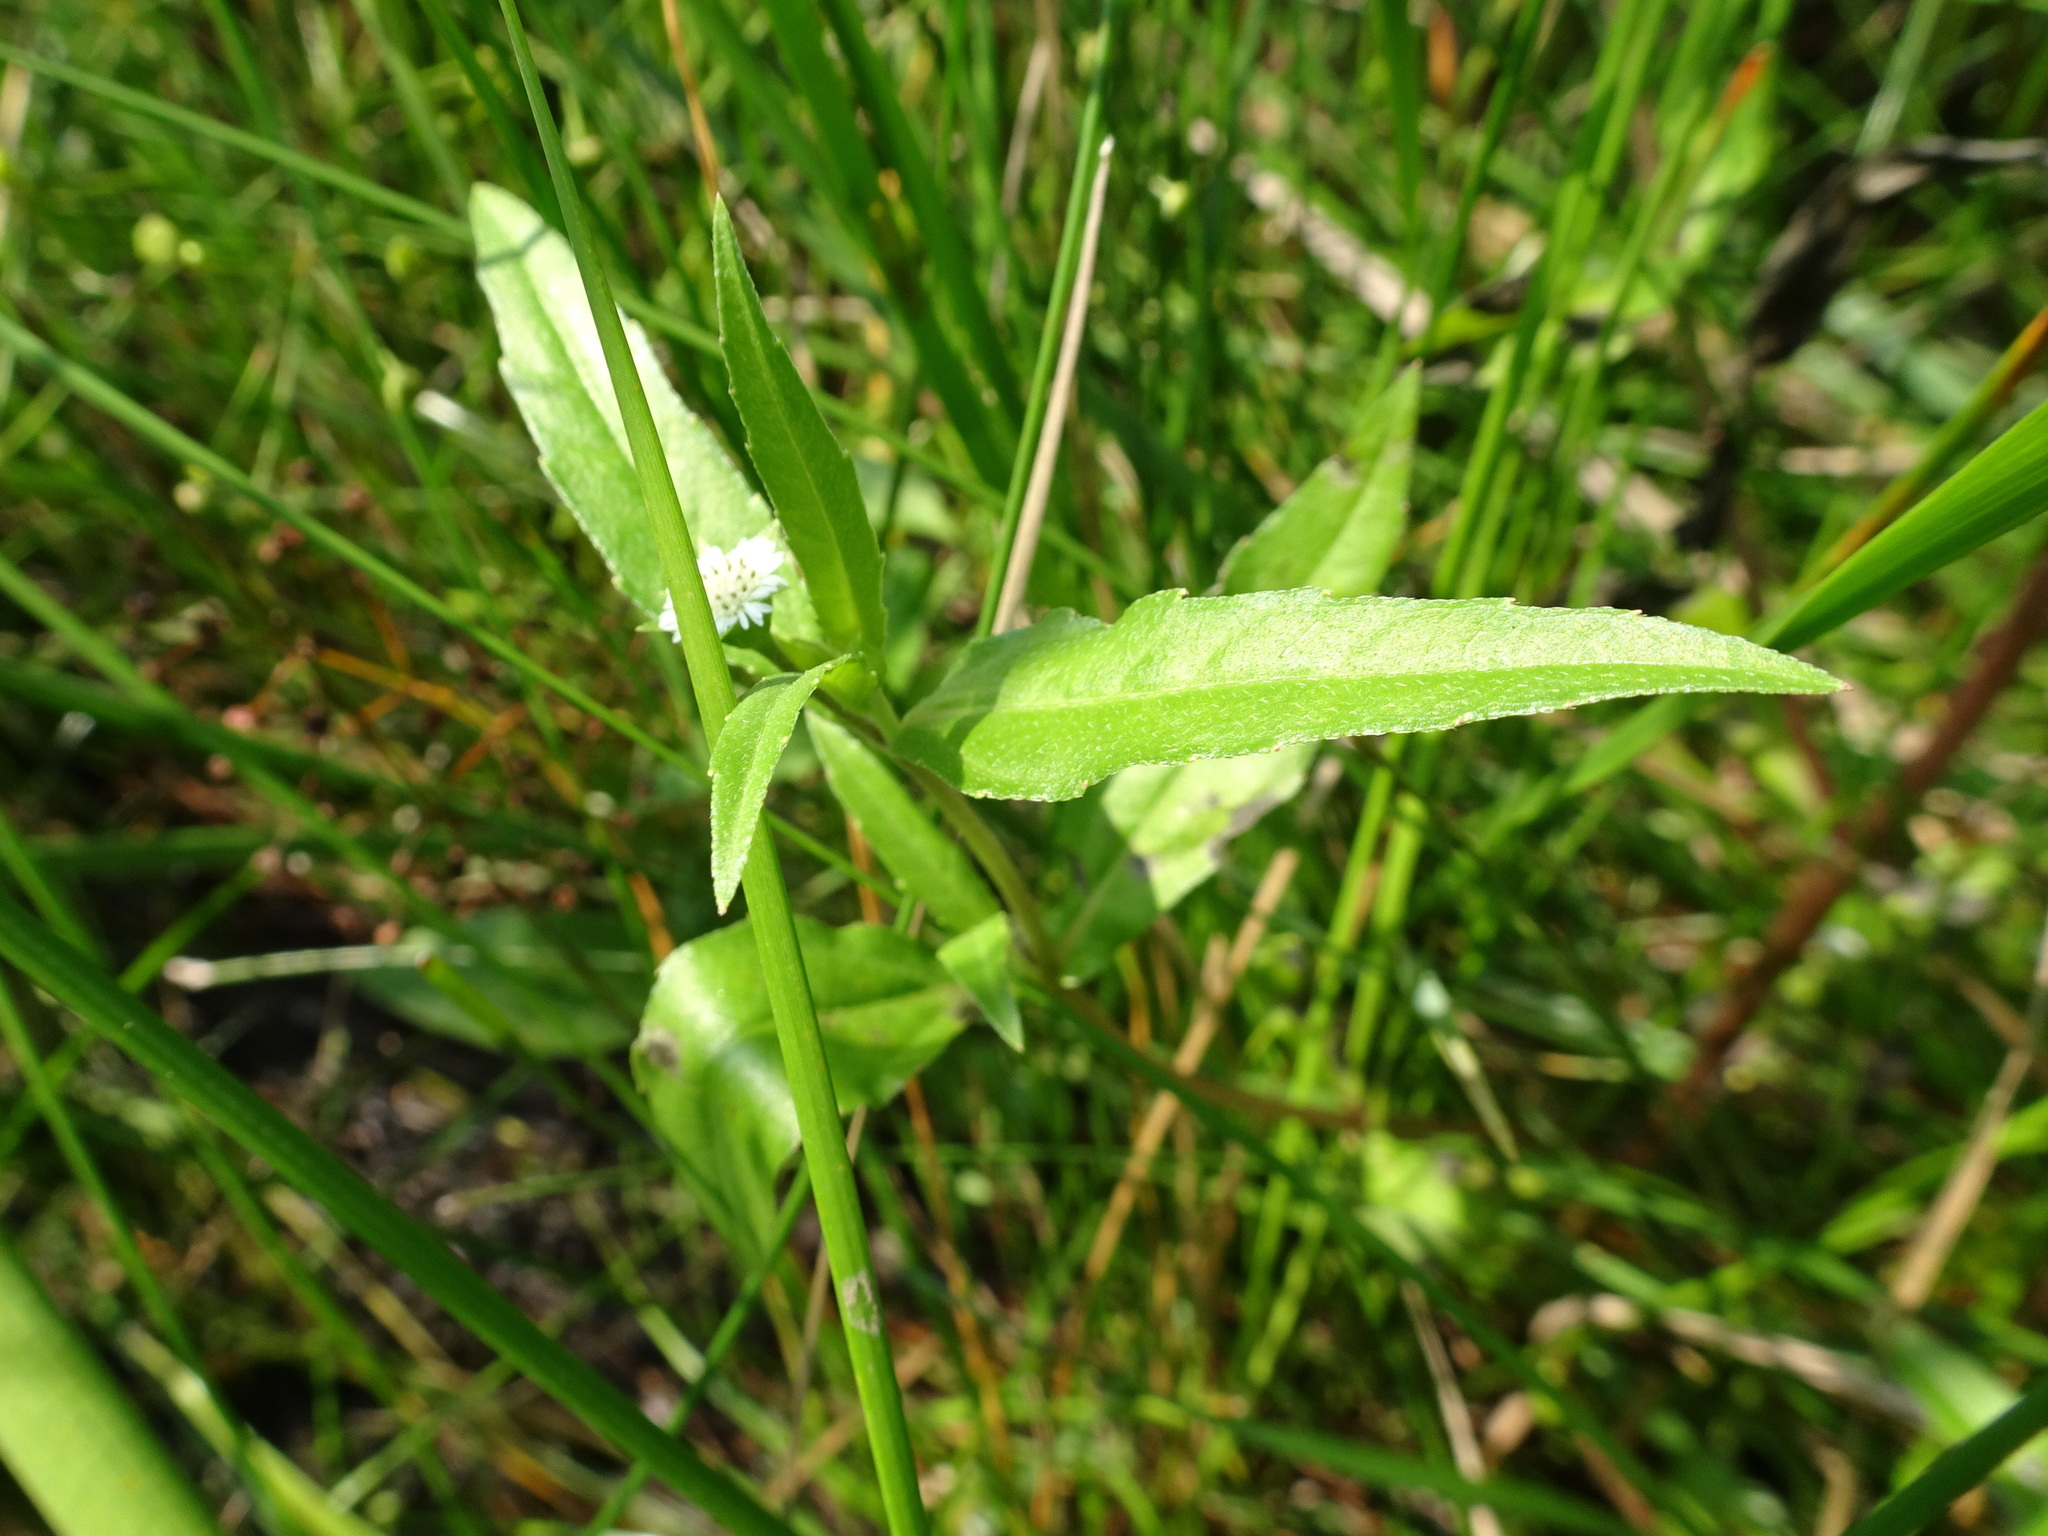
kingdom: Plantae
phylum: Tracheophyta
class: Magnoliopsida
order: Asterales
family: Asteraceae
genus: Eclipta
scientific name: Eclipta prostrata
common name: False daisy
